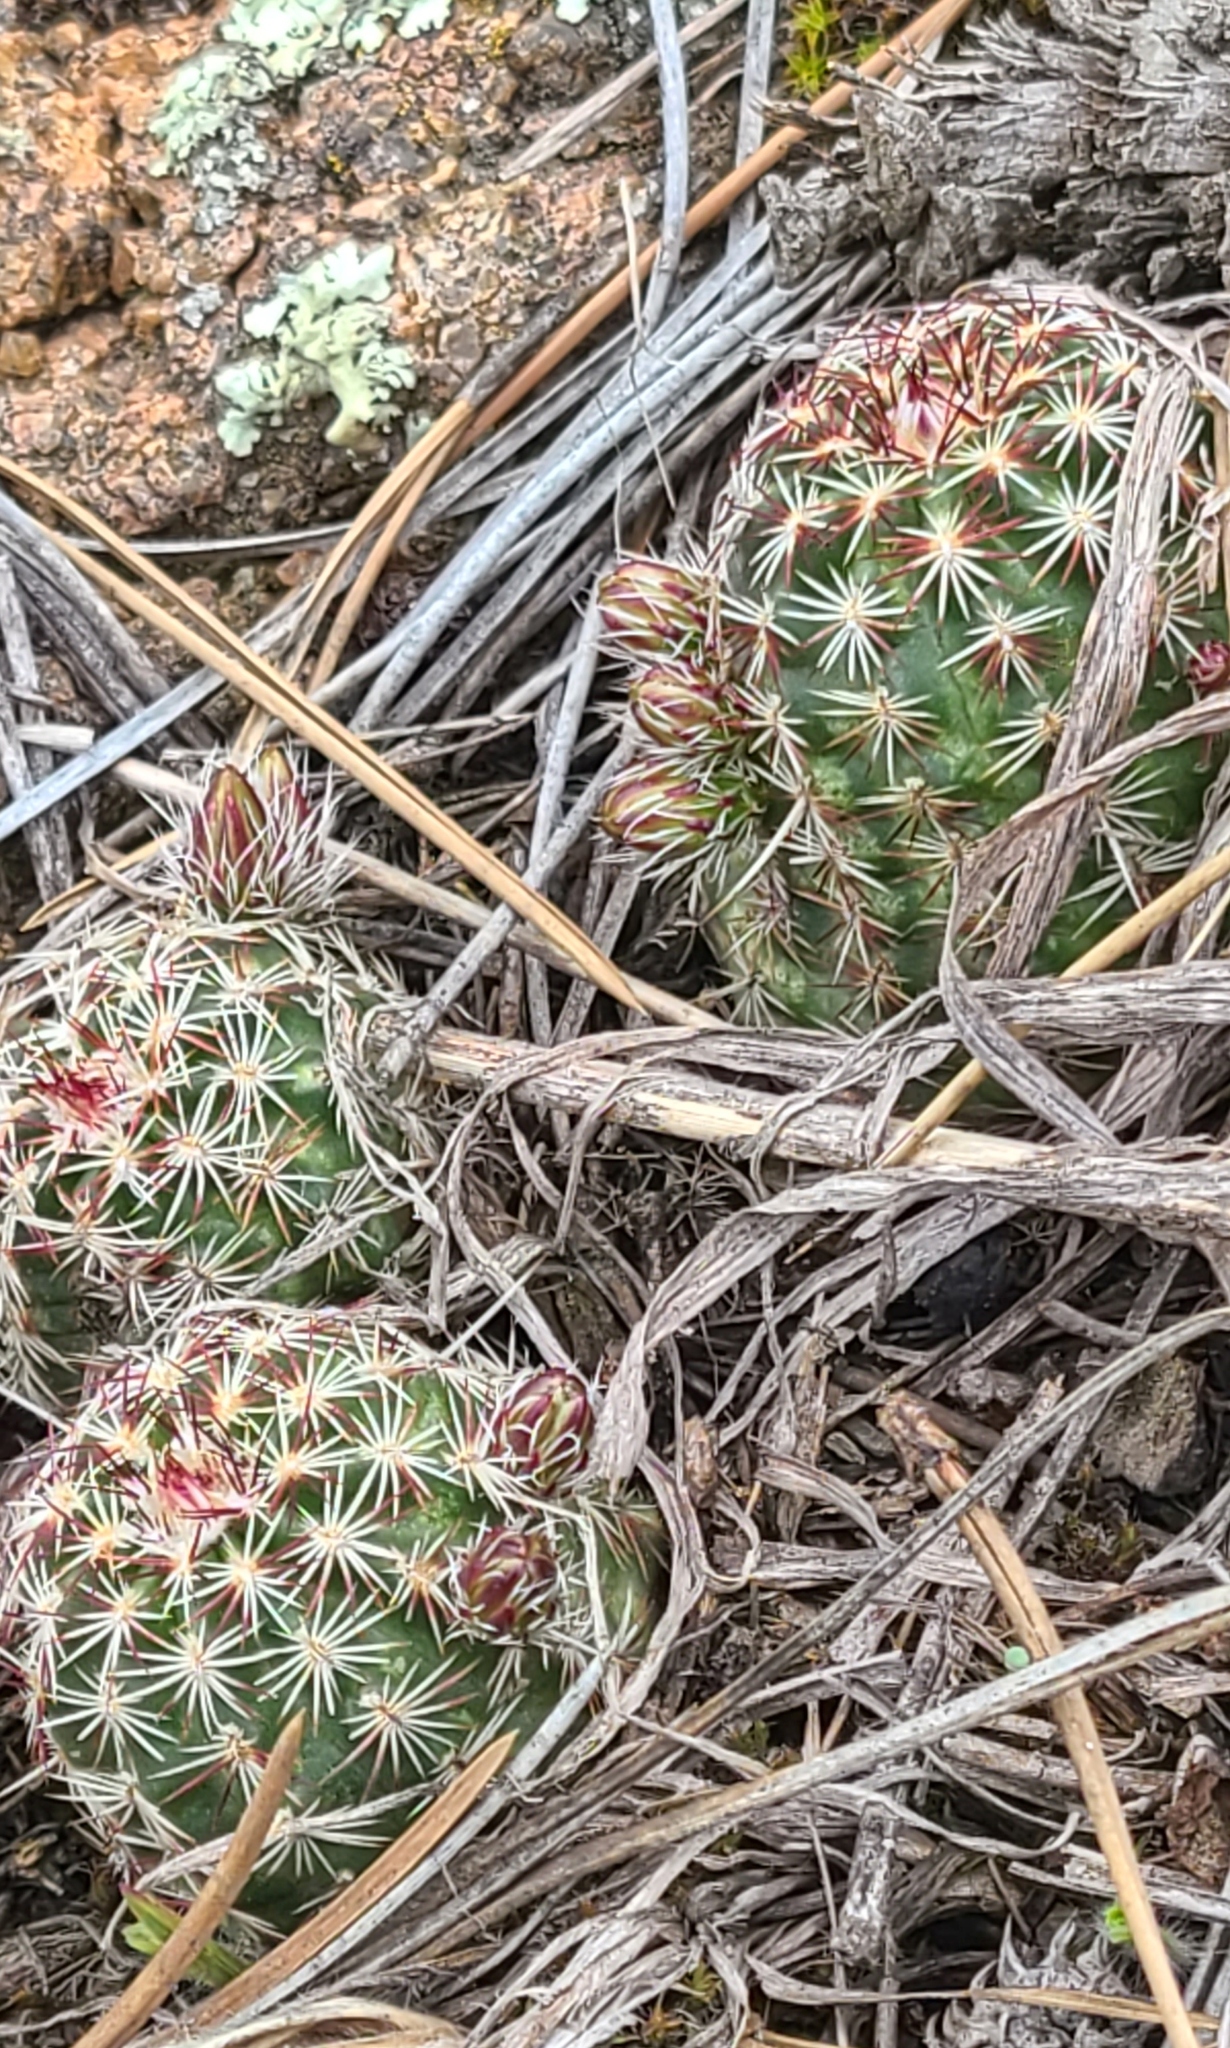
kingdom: Plantae
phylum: Tracheophyta
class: Magnoliopsida
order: Caryophyllales
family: Cactaceae
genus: Echinocereus
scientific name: Echinocereus viridiflorus
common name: Nylon hedgehog cactus
